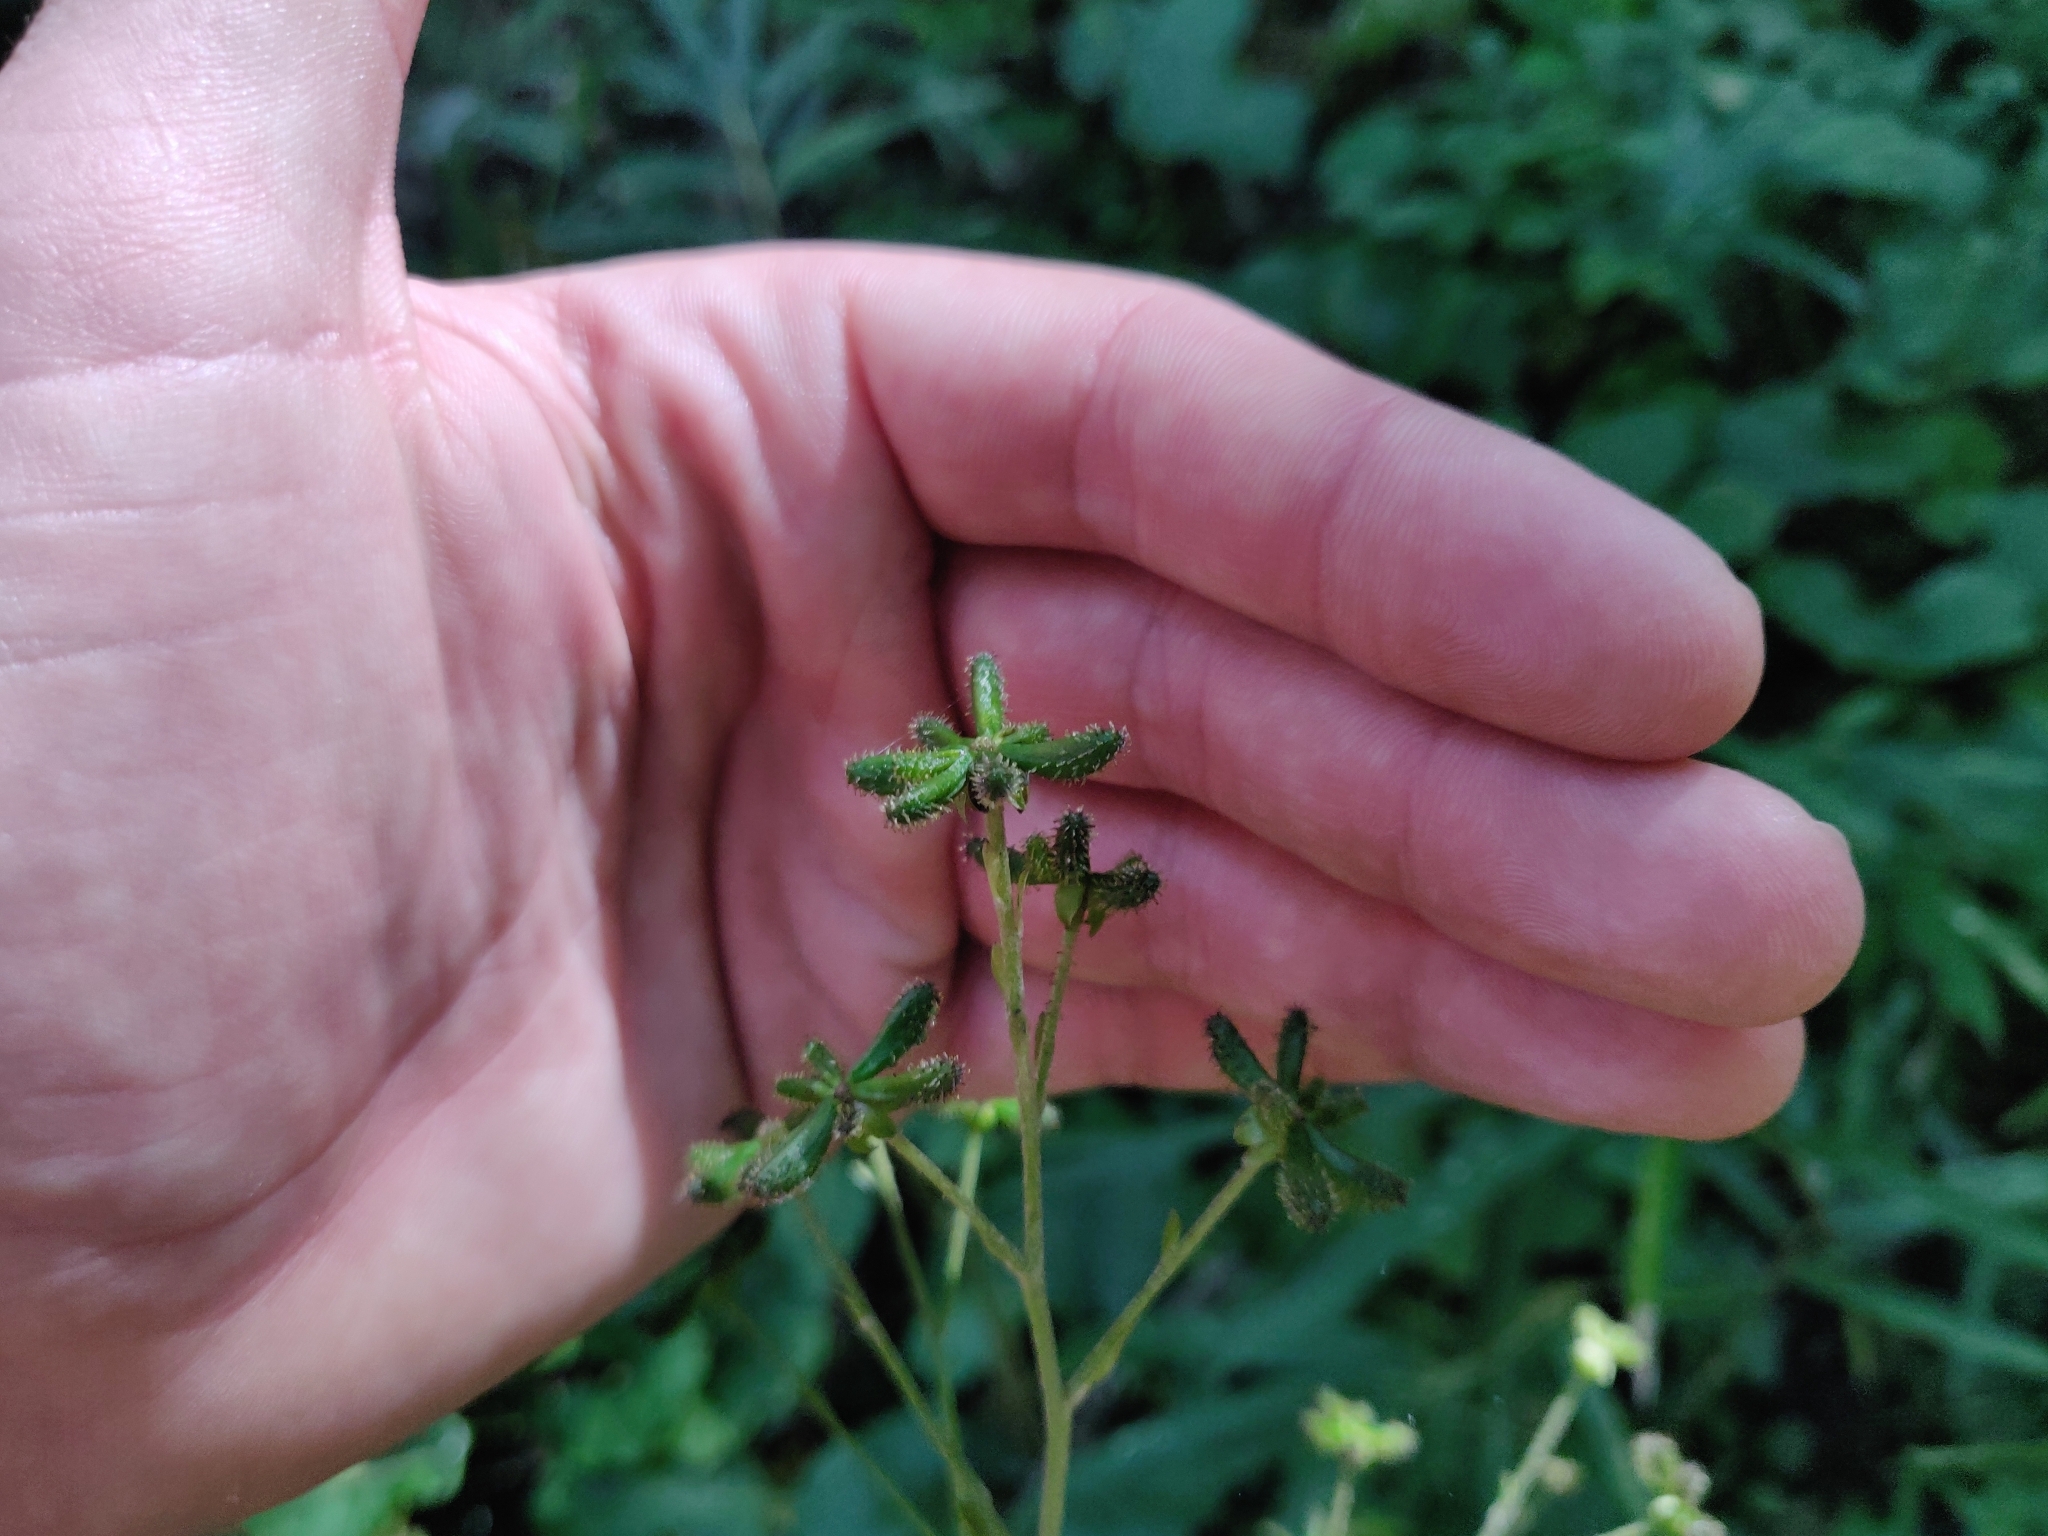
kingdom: Plantae
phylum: Tracheophyta
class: Magnoliopsida
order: Asterales
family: Asteraceae
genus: Adenocaulon
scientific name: Adenocaulon himalaicum
